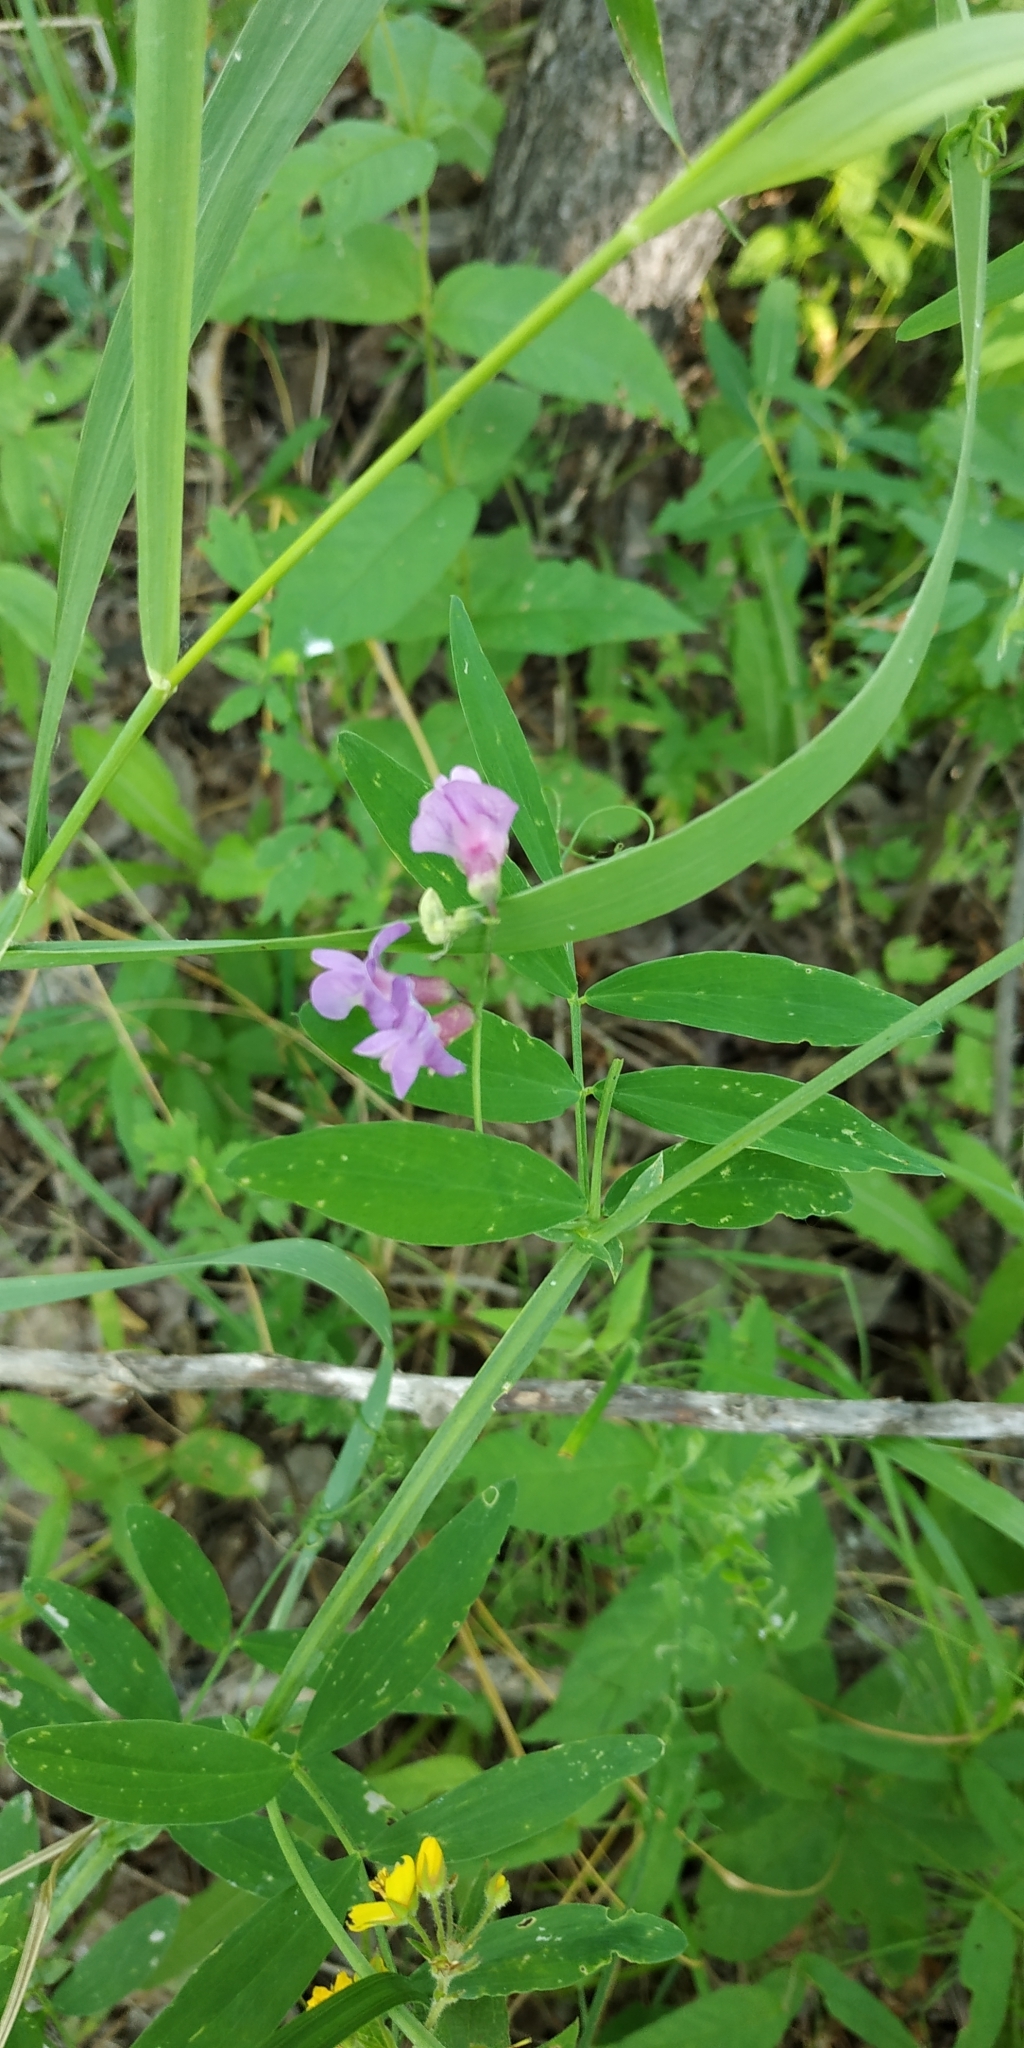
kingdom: Plantae
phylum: Tracheophyta
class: Magnoliopsida
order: Fabales
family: Fabaceae
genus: Lathyrus
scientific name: Lathyrus palustris
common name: Marsh pea
